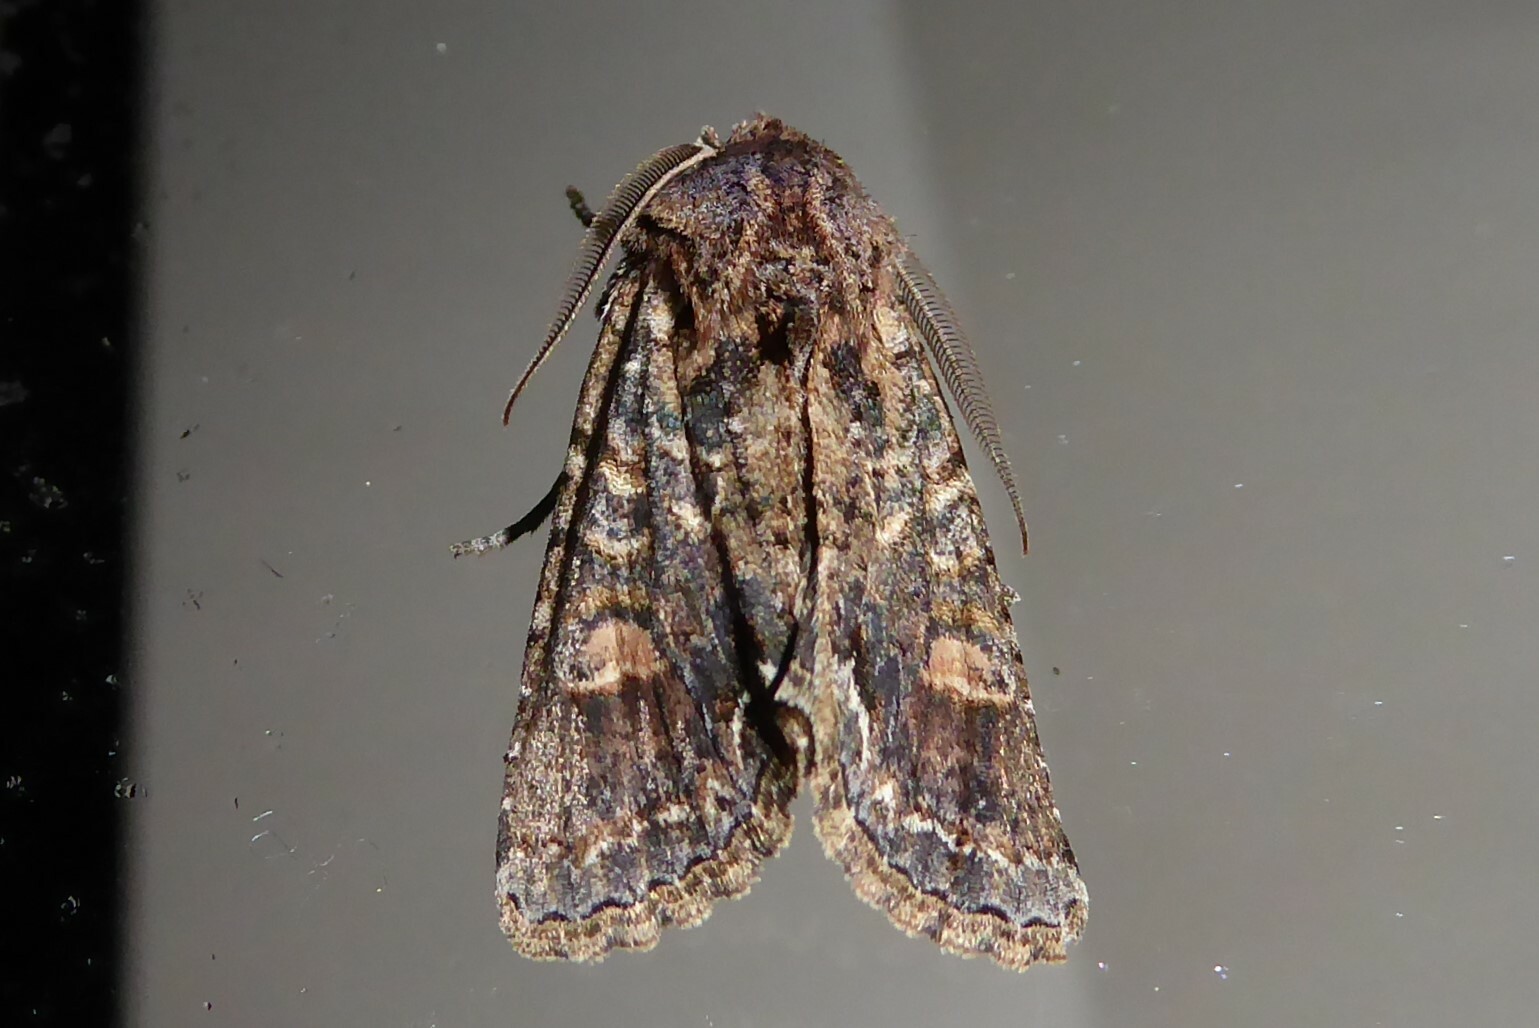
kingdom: Animalia
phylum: Arthropoda
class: Insecta
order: Lepidoptera
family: Noctuidae
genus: Ichneutica
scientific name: Ichneutica skelloni
